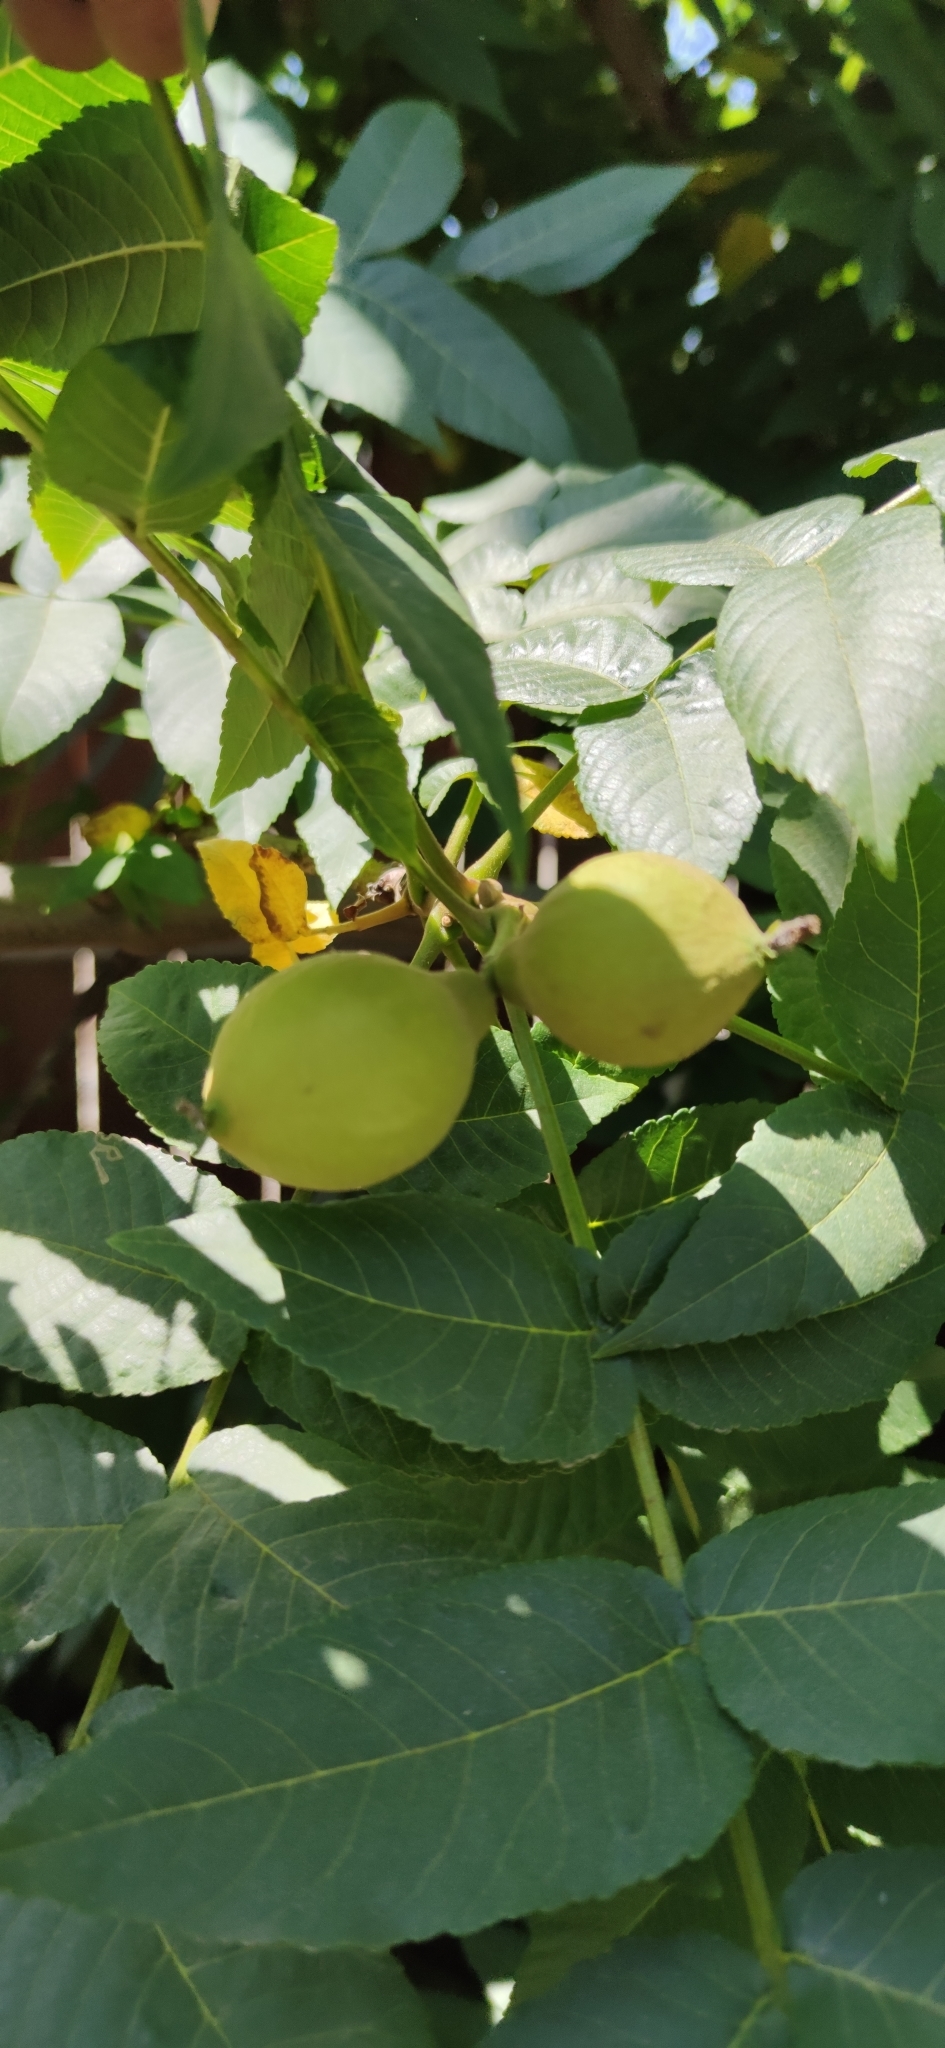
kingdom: Plantae
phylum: Tracheophyta
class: Magnoliopsida
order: Fagales
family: Juglandaceae
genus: Juglans
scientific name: Juglans californica
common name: Southern california black walnut
